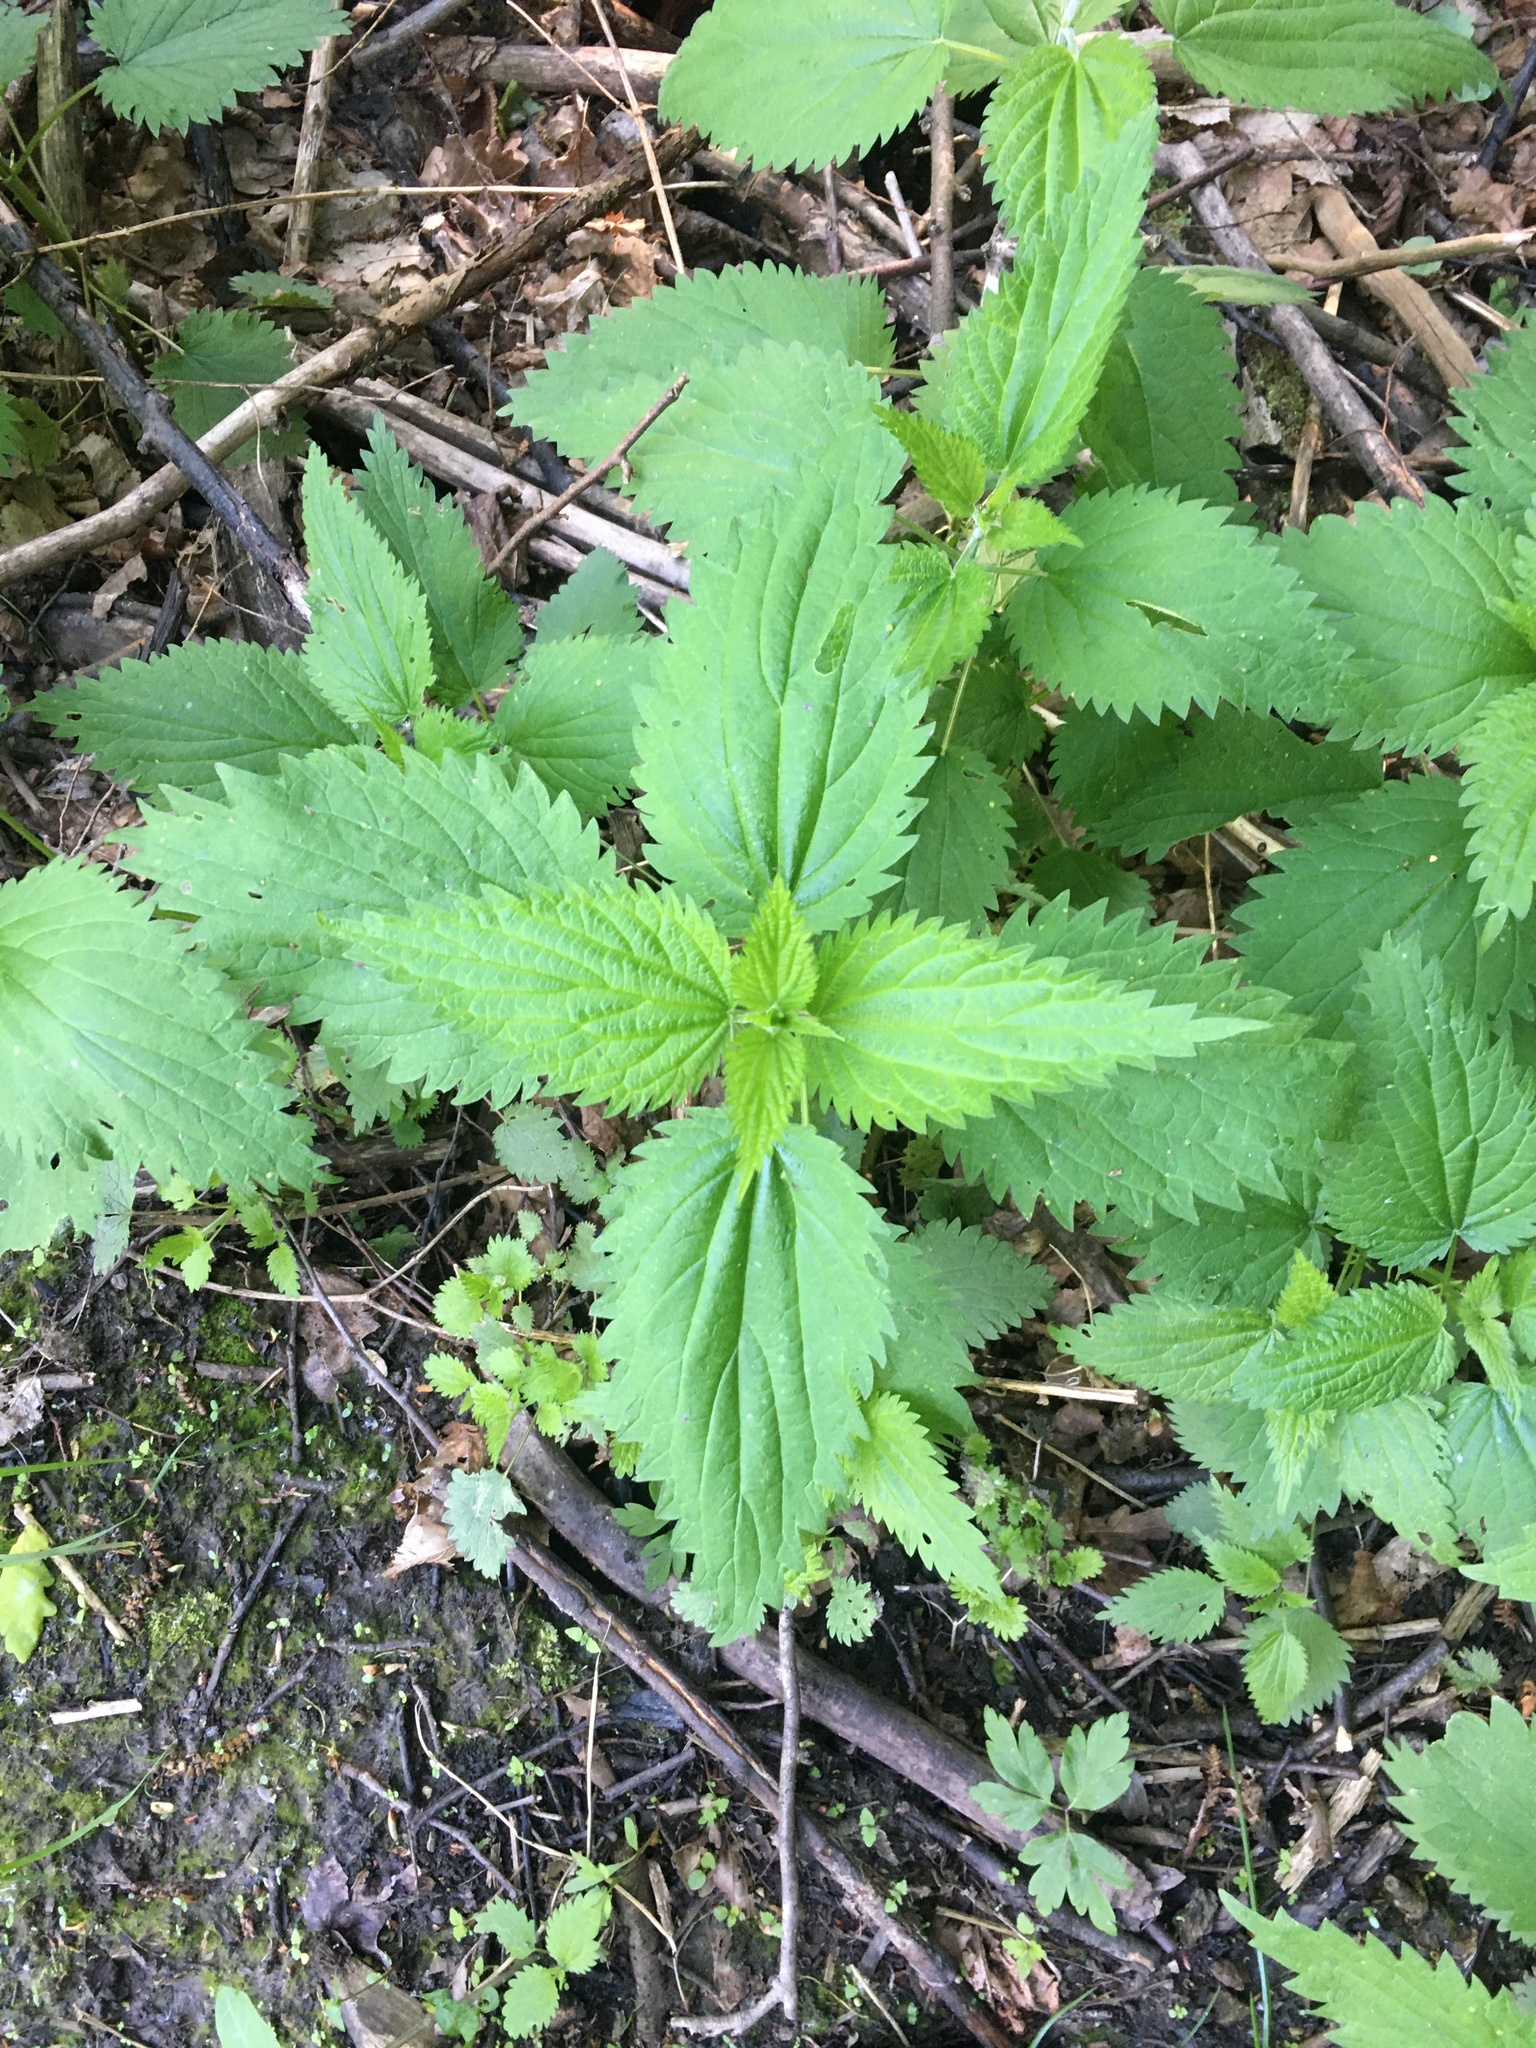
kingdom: Plantae
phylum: Tracheophyta
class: Magnoliopsida
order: Rosales
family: Urticaceae
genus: Urtica
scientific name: Urtica dioica
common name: Common nettle
